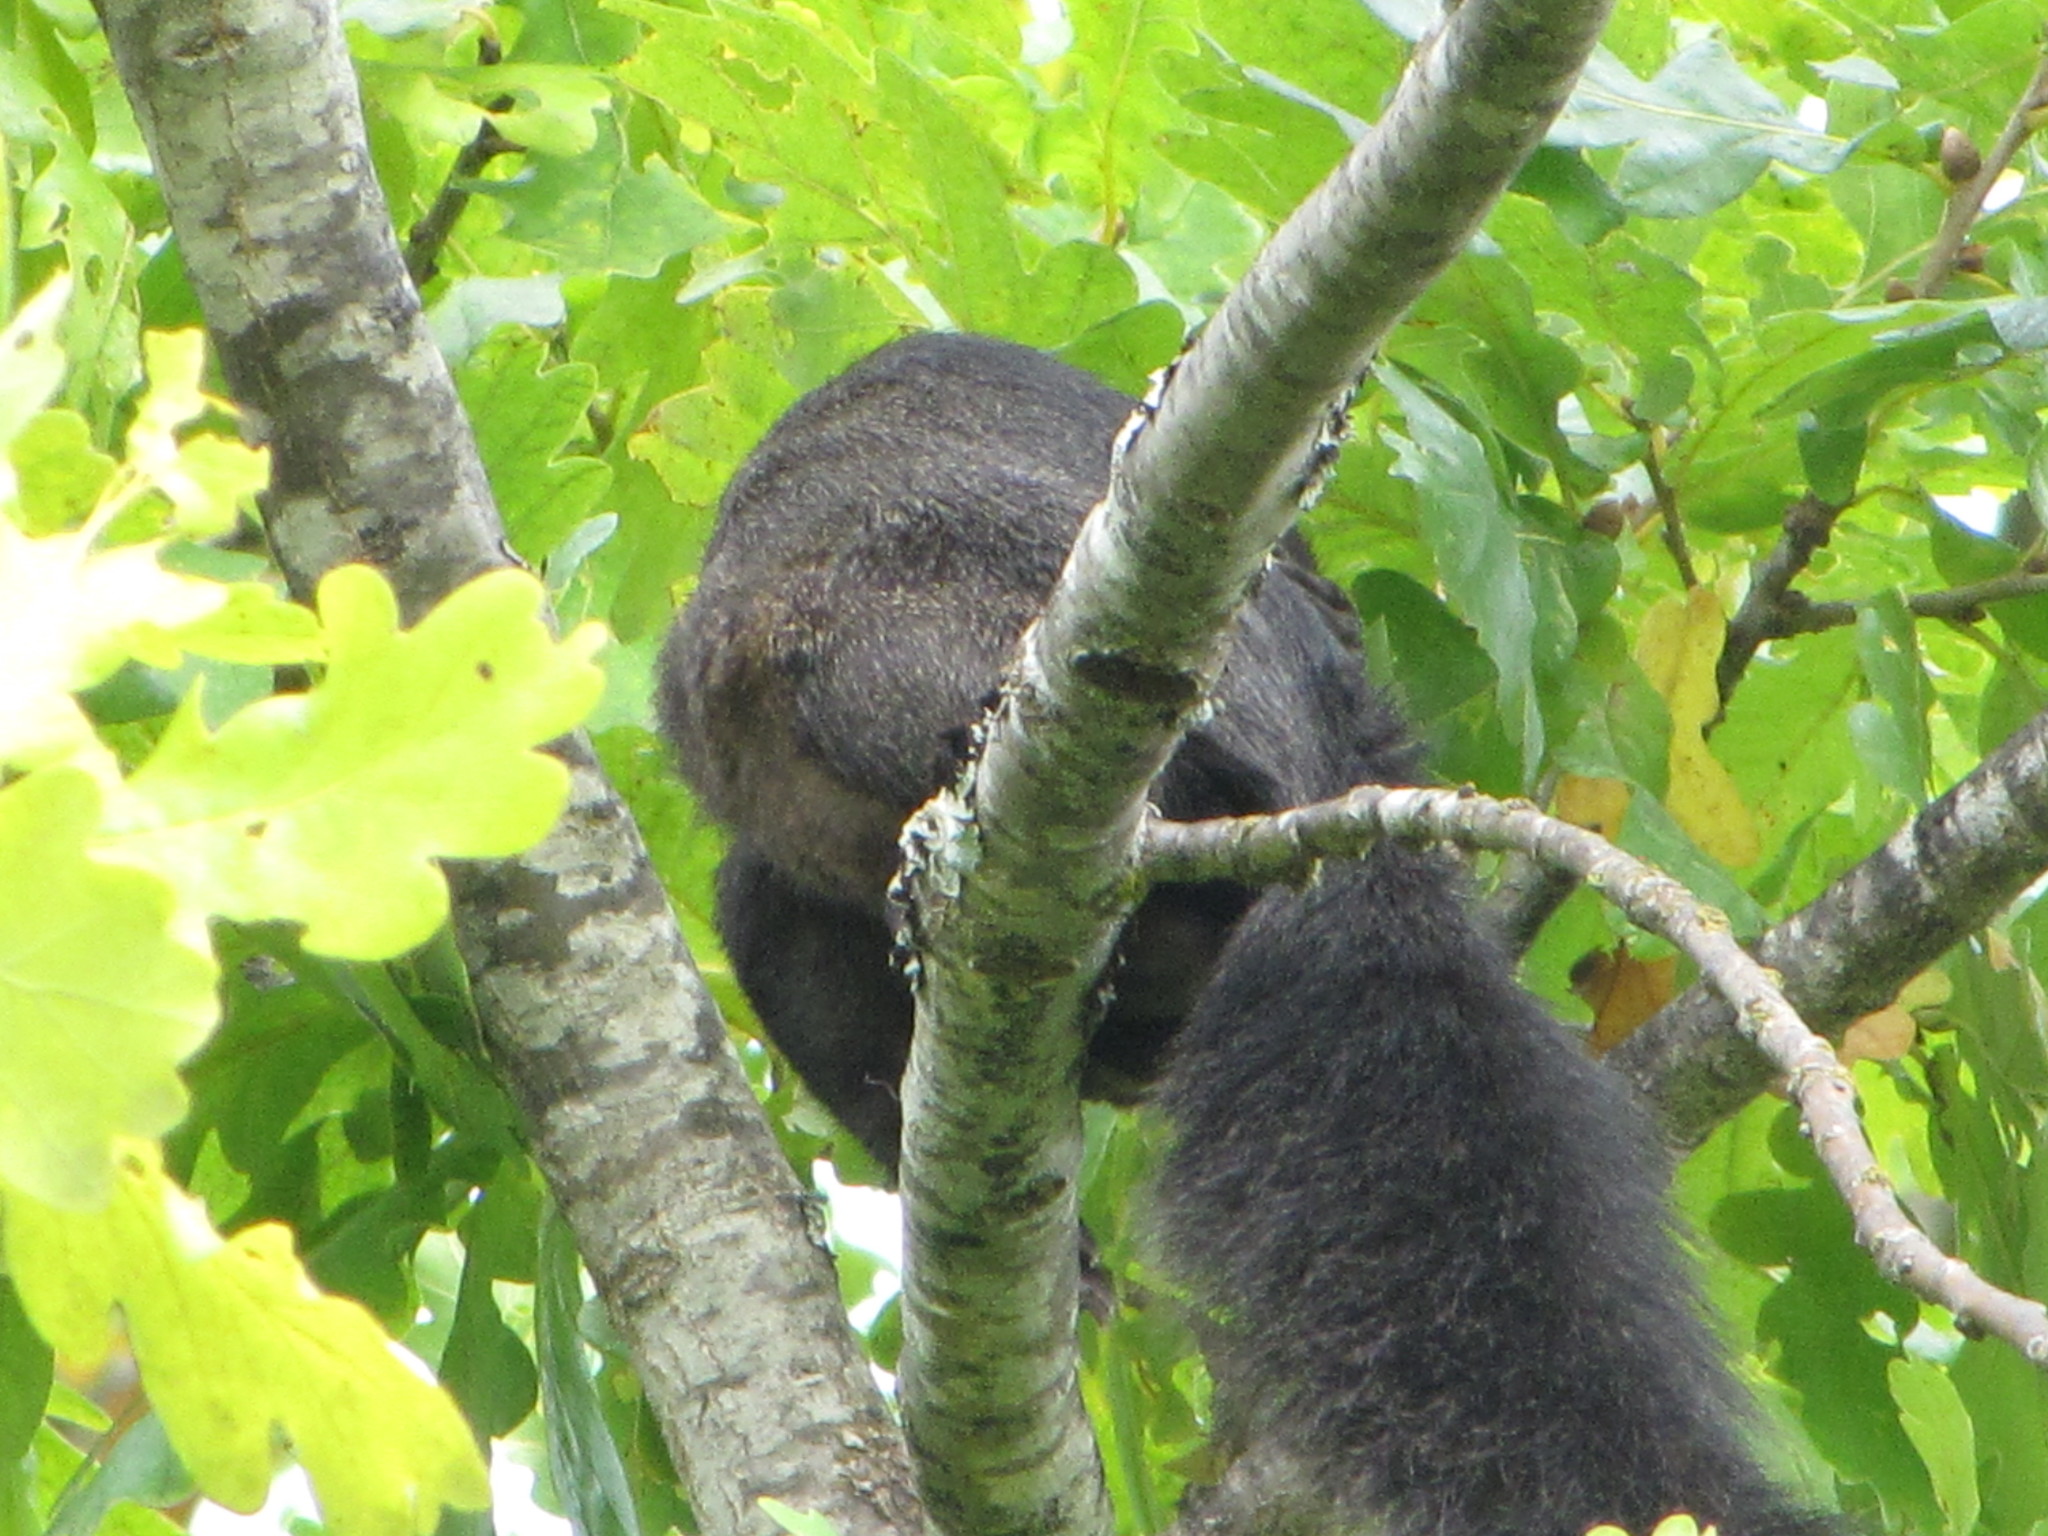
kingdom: Animalia
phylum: Chordata
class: Mammalia
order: Rodentia
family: Sciuridae
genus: Sciurus
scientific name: Sciurus carolinensis
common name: Eastern gray squirrel
